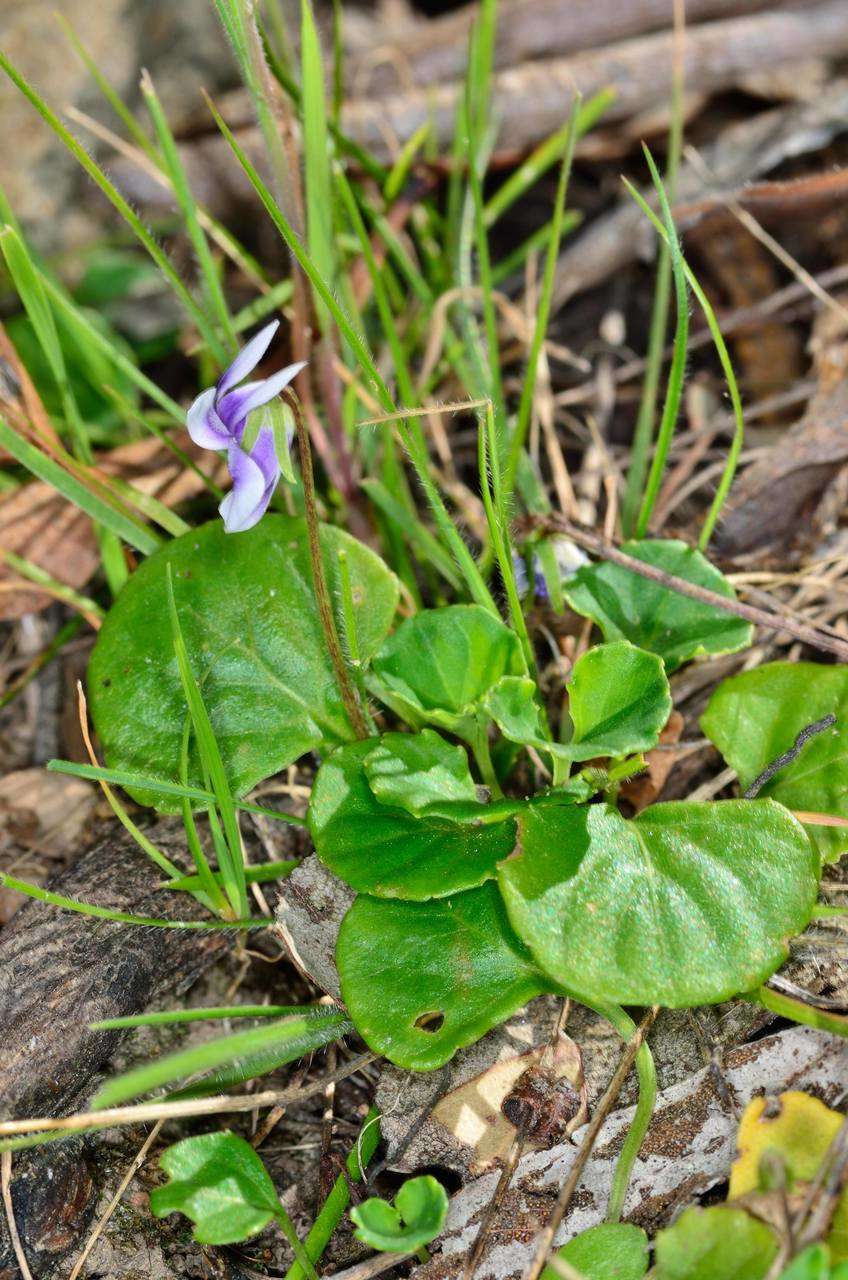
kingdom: Plantae
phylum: Tracheophyta
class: Magnoliopsida
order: Malpighiales
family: Violaceae
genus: Viola
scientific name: Viola hederacea
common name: Australian violet
